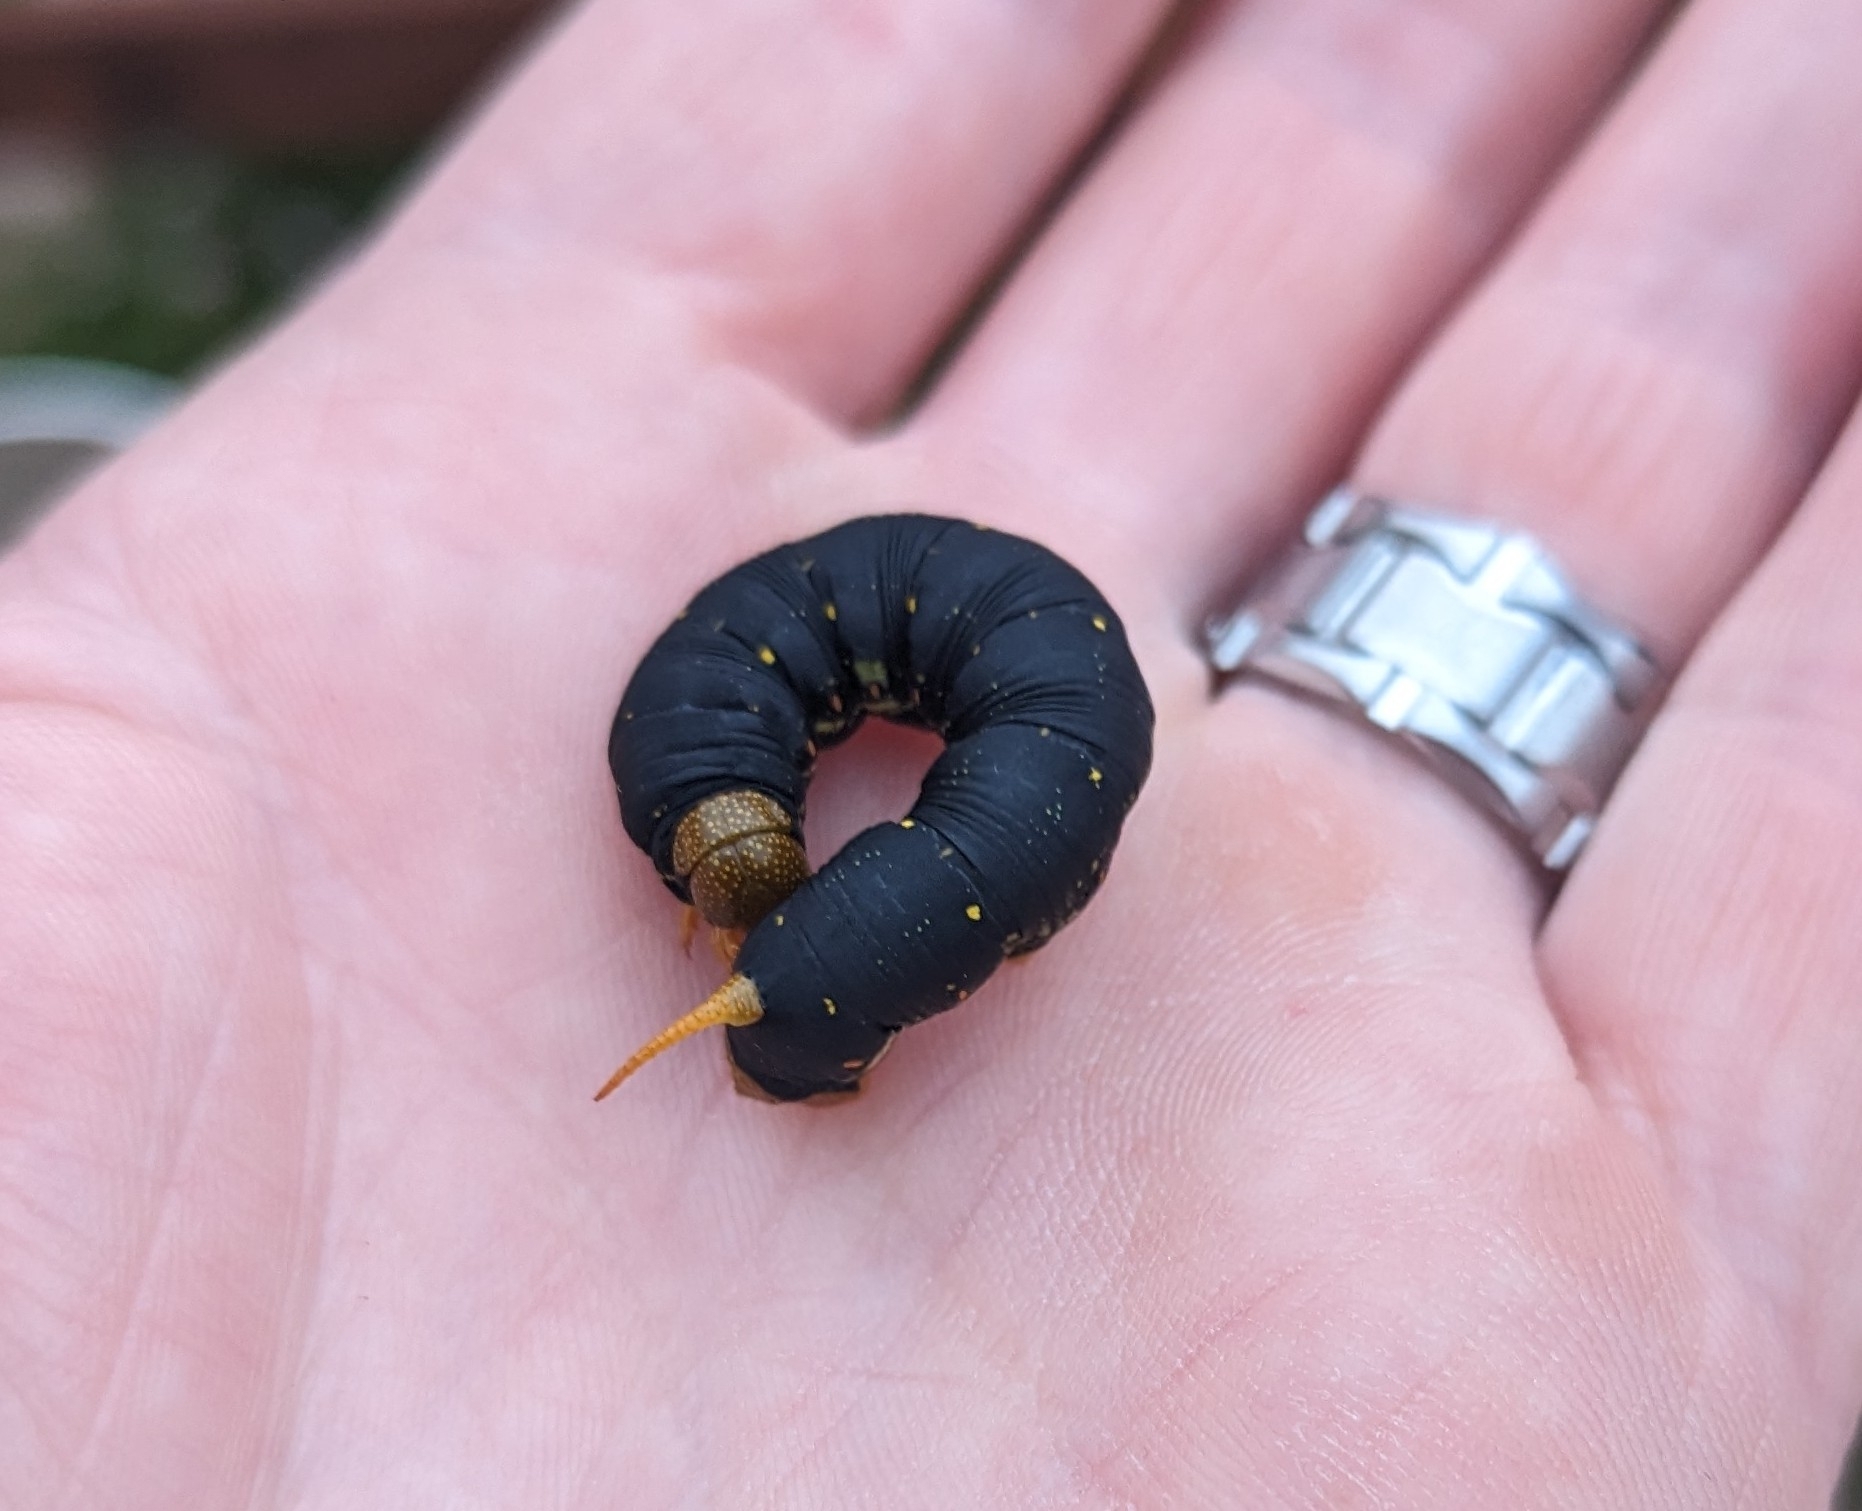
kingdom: Animalia
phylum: Arthropoda
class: Insecta
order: Lepidoptera
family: Sphingidae
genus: Hyles
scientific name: Hyles lineata
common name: White-lined sphinx
